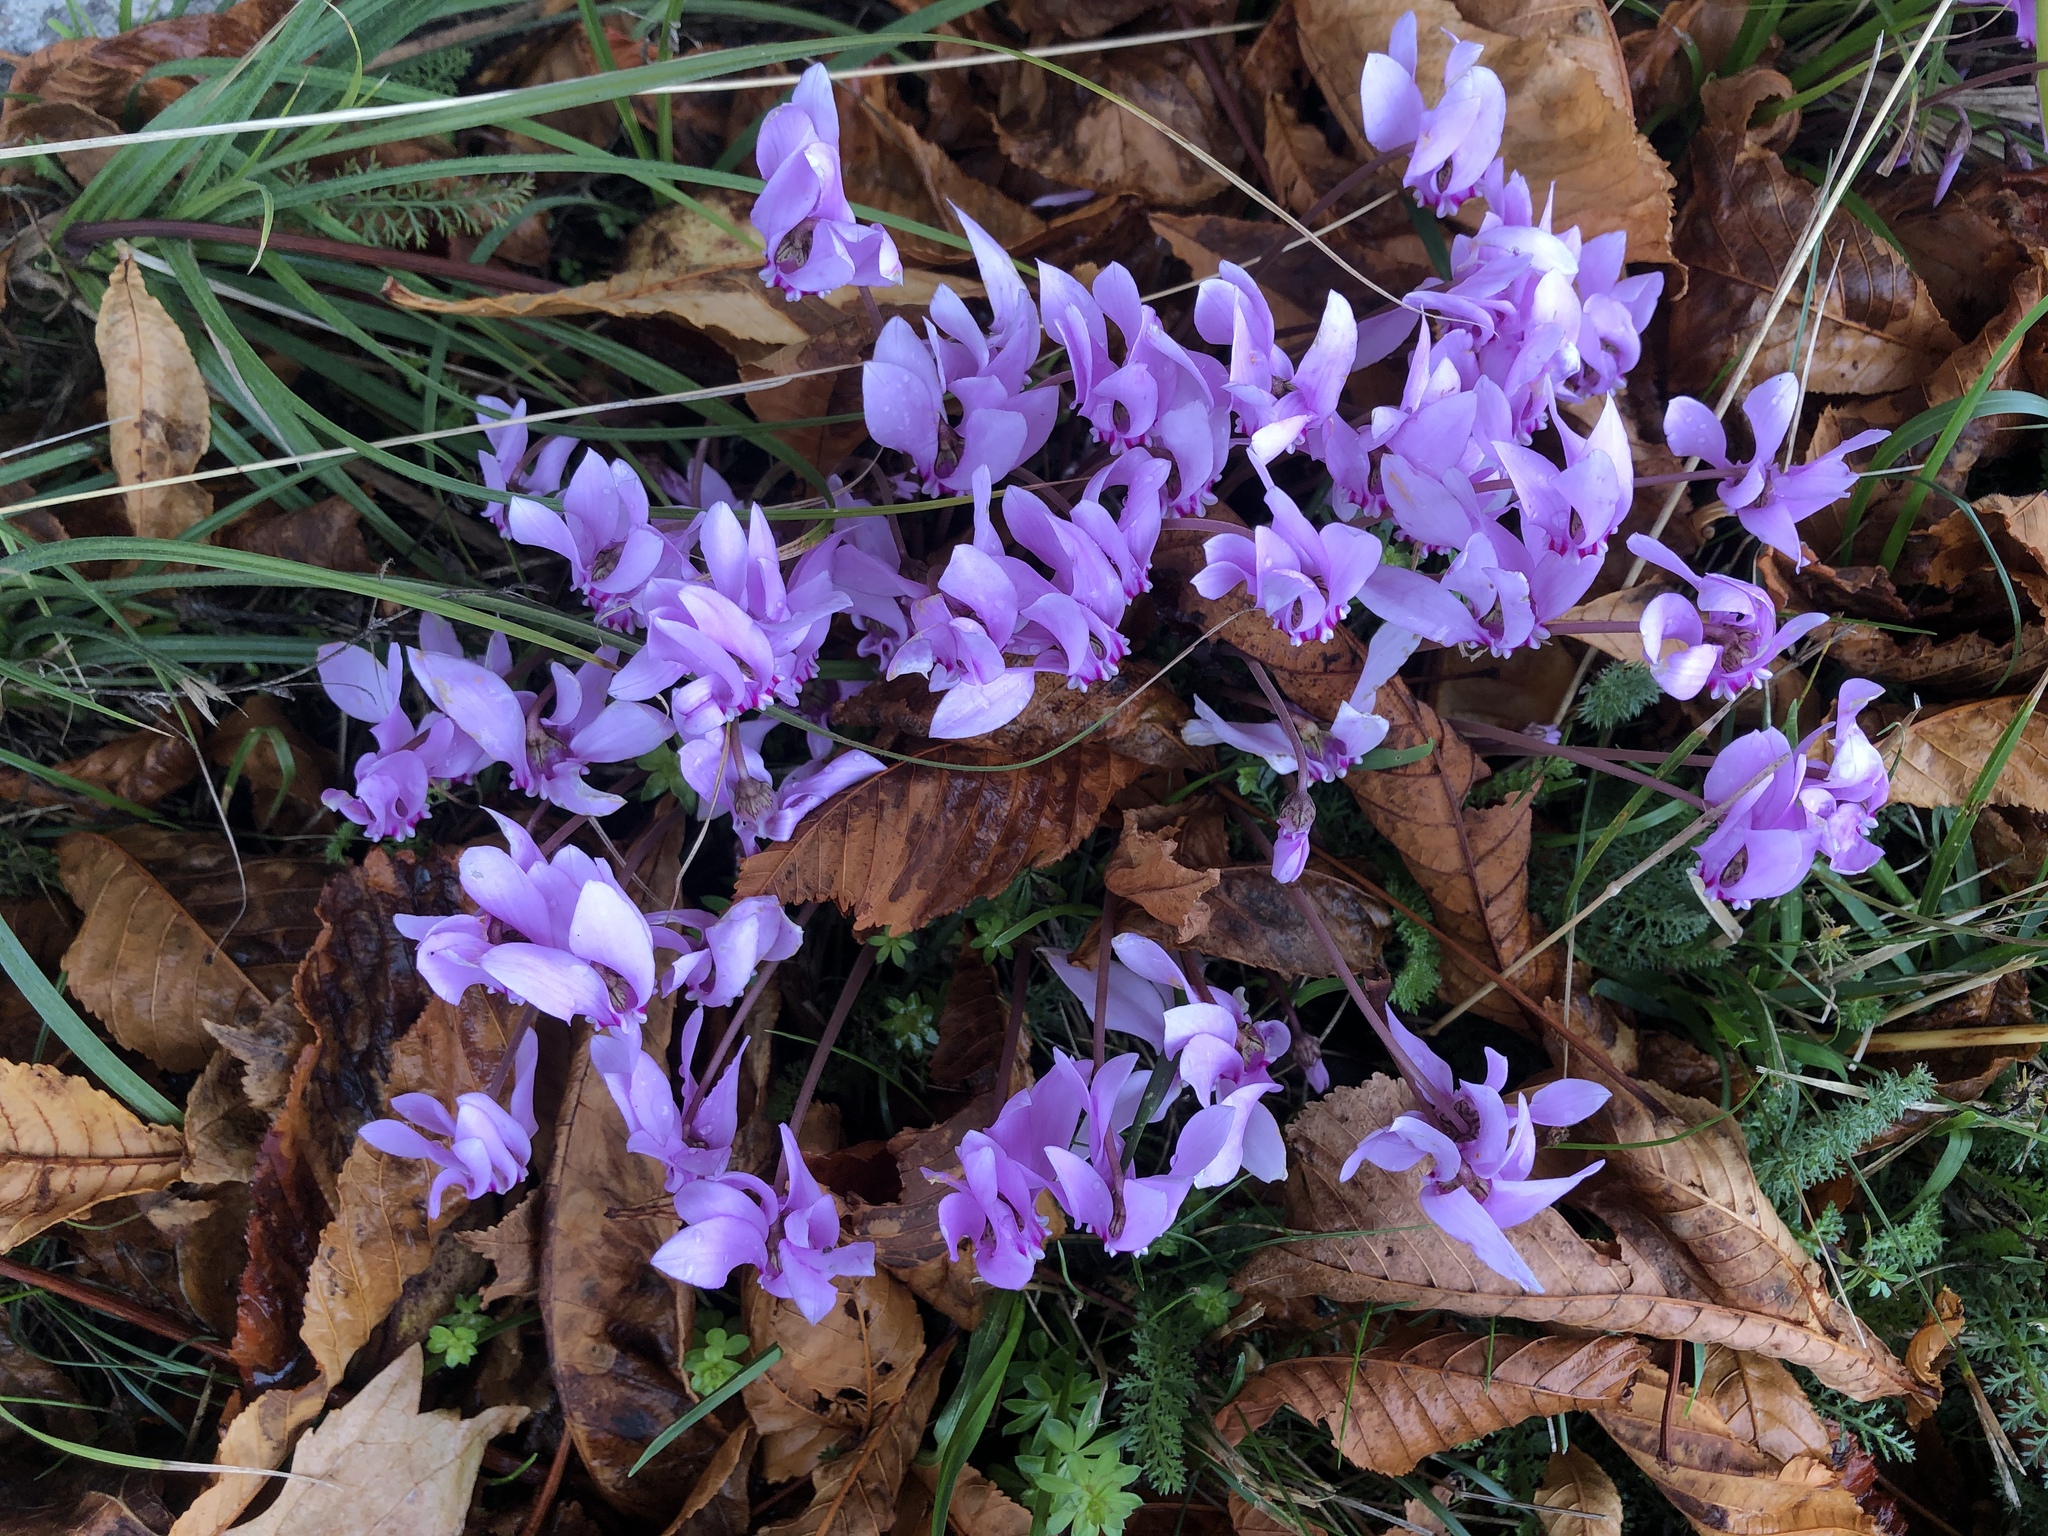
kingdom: Plantae
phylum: Tracheophyta
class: Magnoliopsida
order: Ericales
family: Primulaceae
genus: Cyclamen
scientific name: Cyclamen hederifolium
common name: Sowbread
